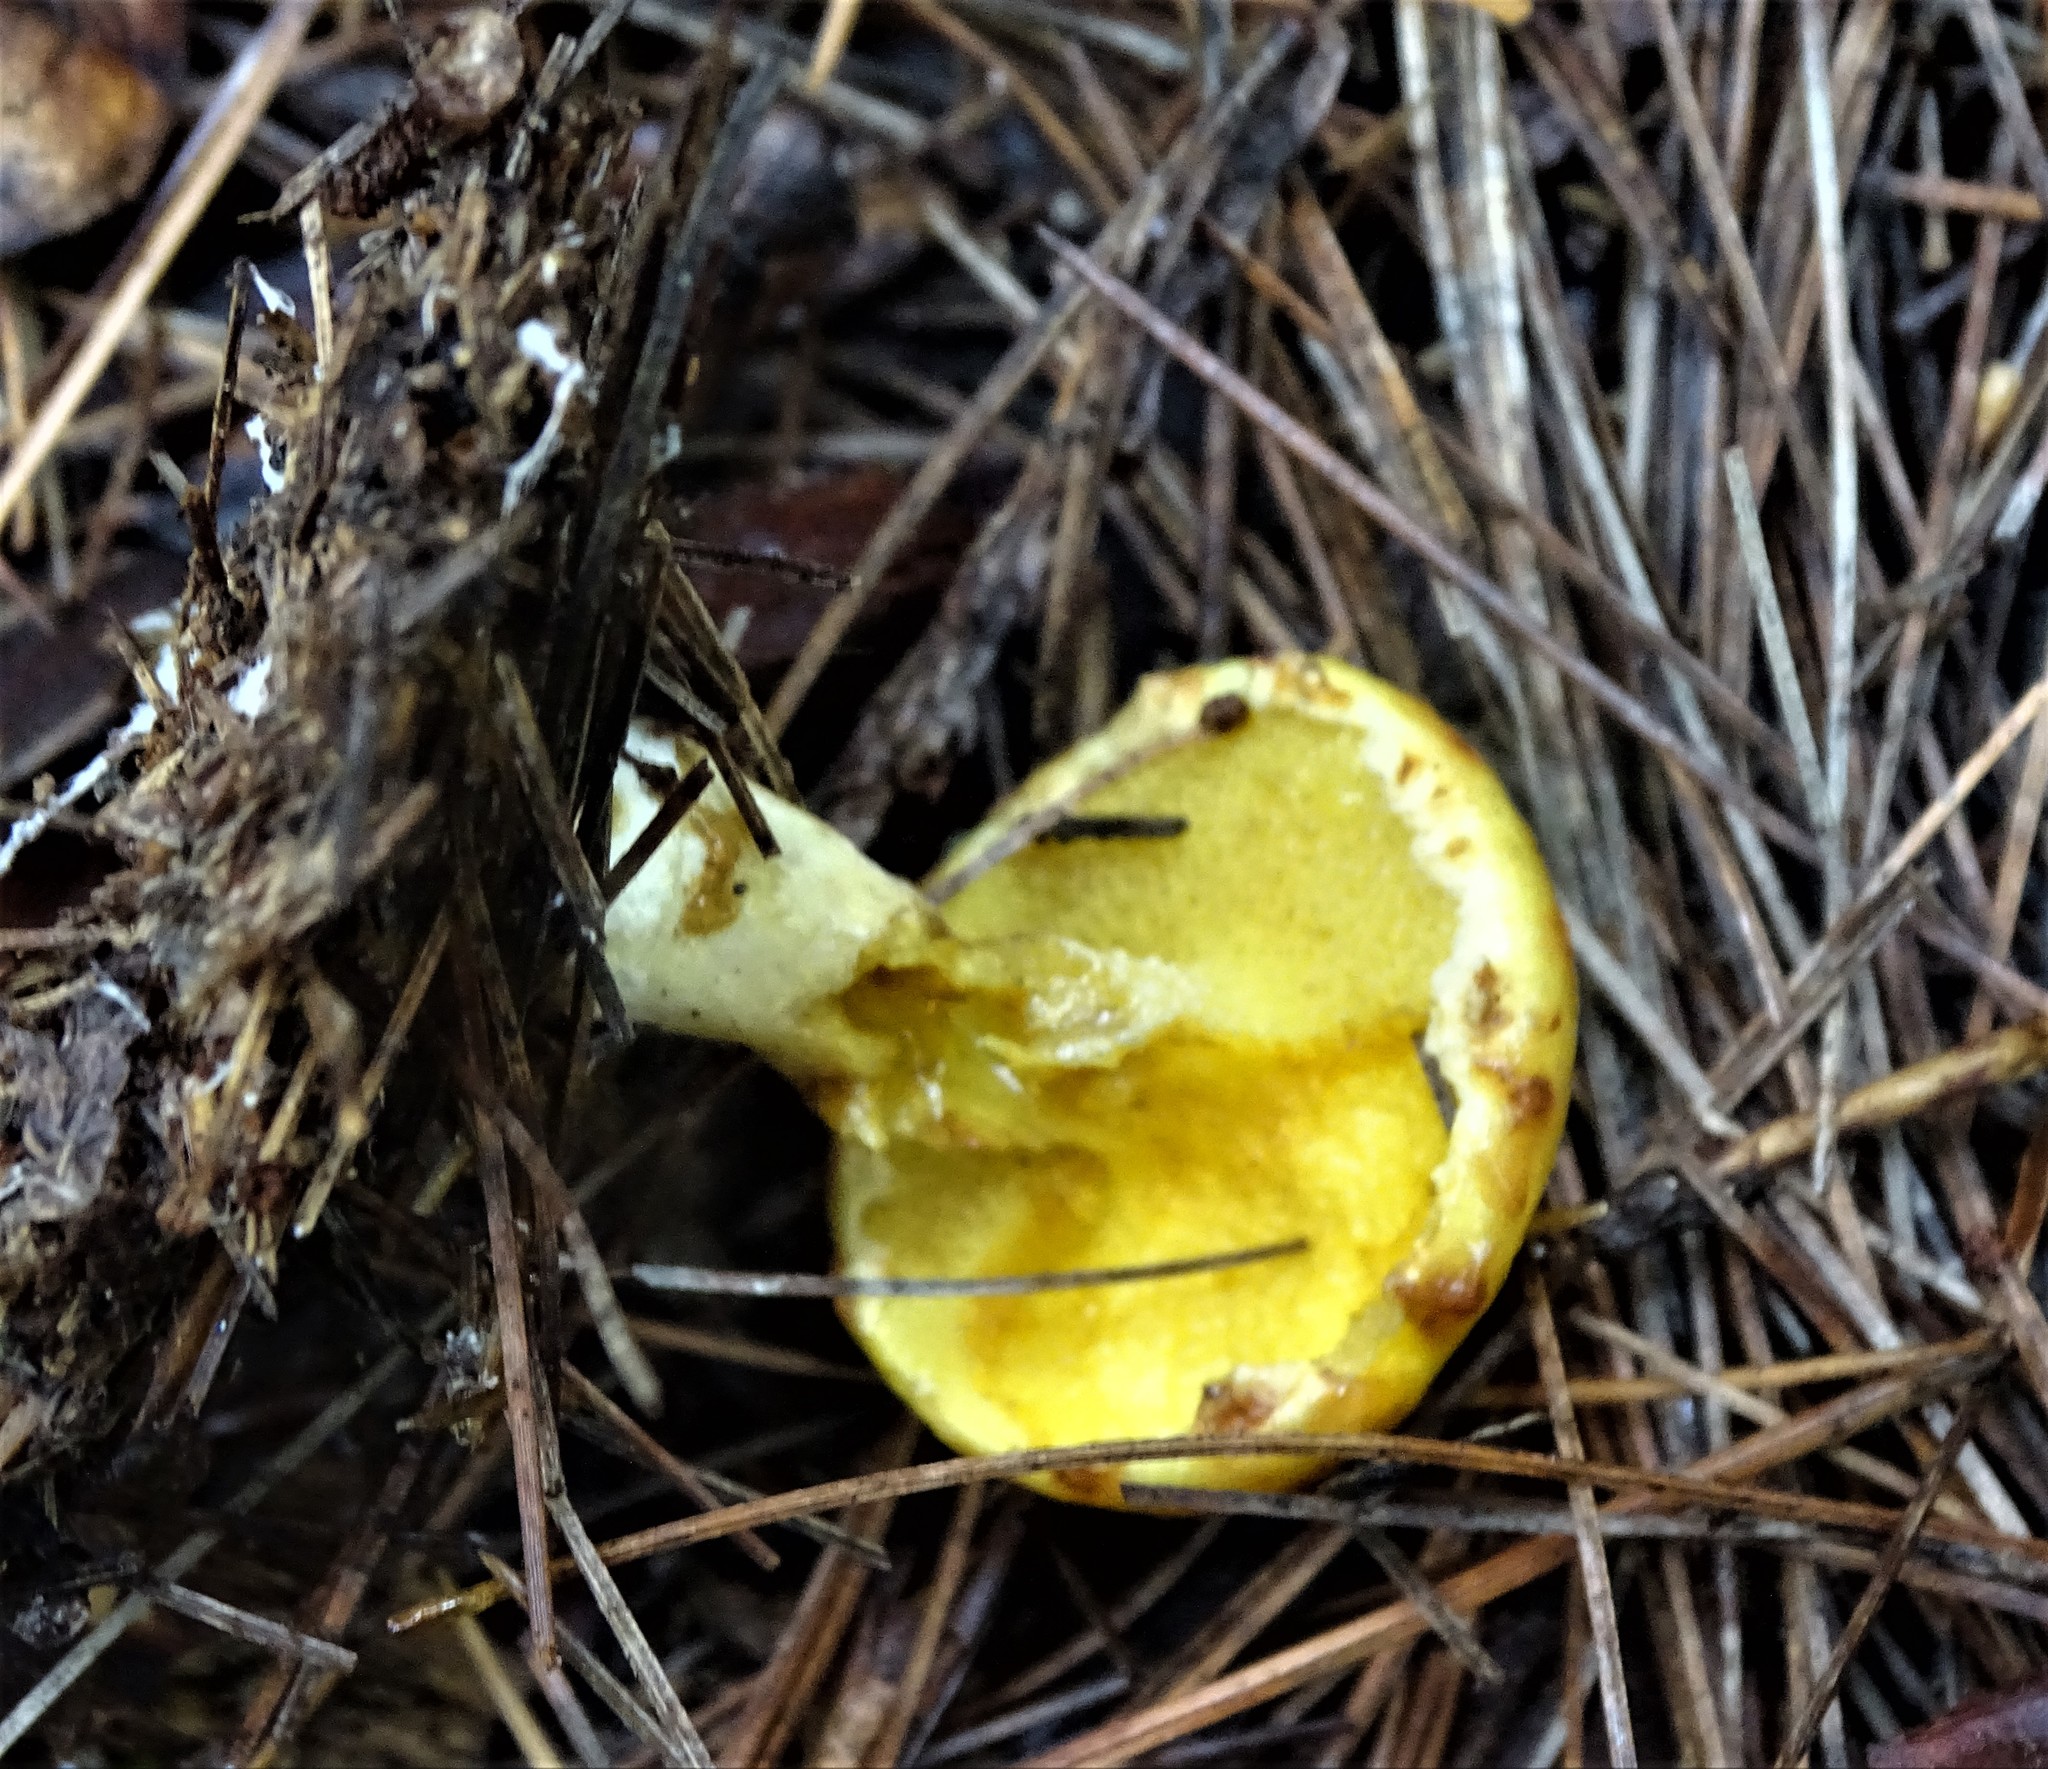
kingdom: Fungi
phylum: Basidiomycota
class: Agaricomycetes
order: Boletales
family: Suillaceae
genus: Suillus
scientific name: Suillus americanus
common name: Chicken fat mushroom
